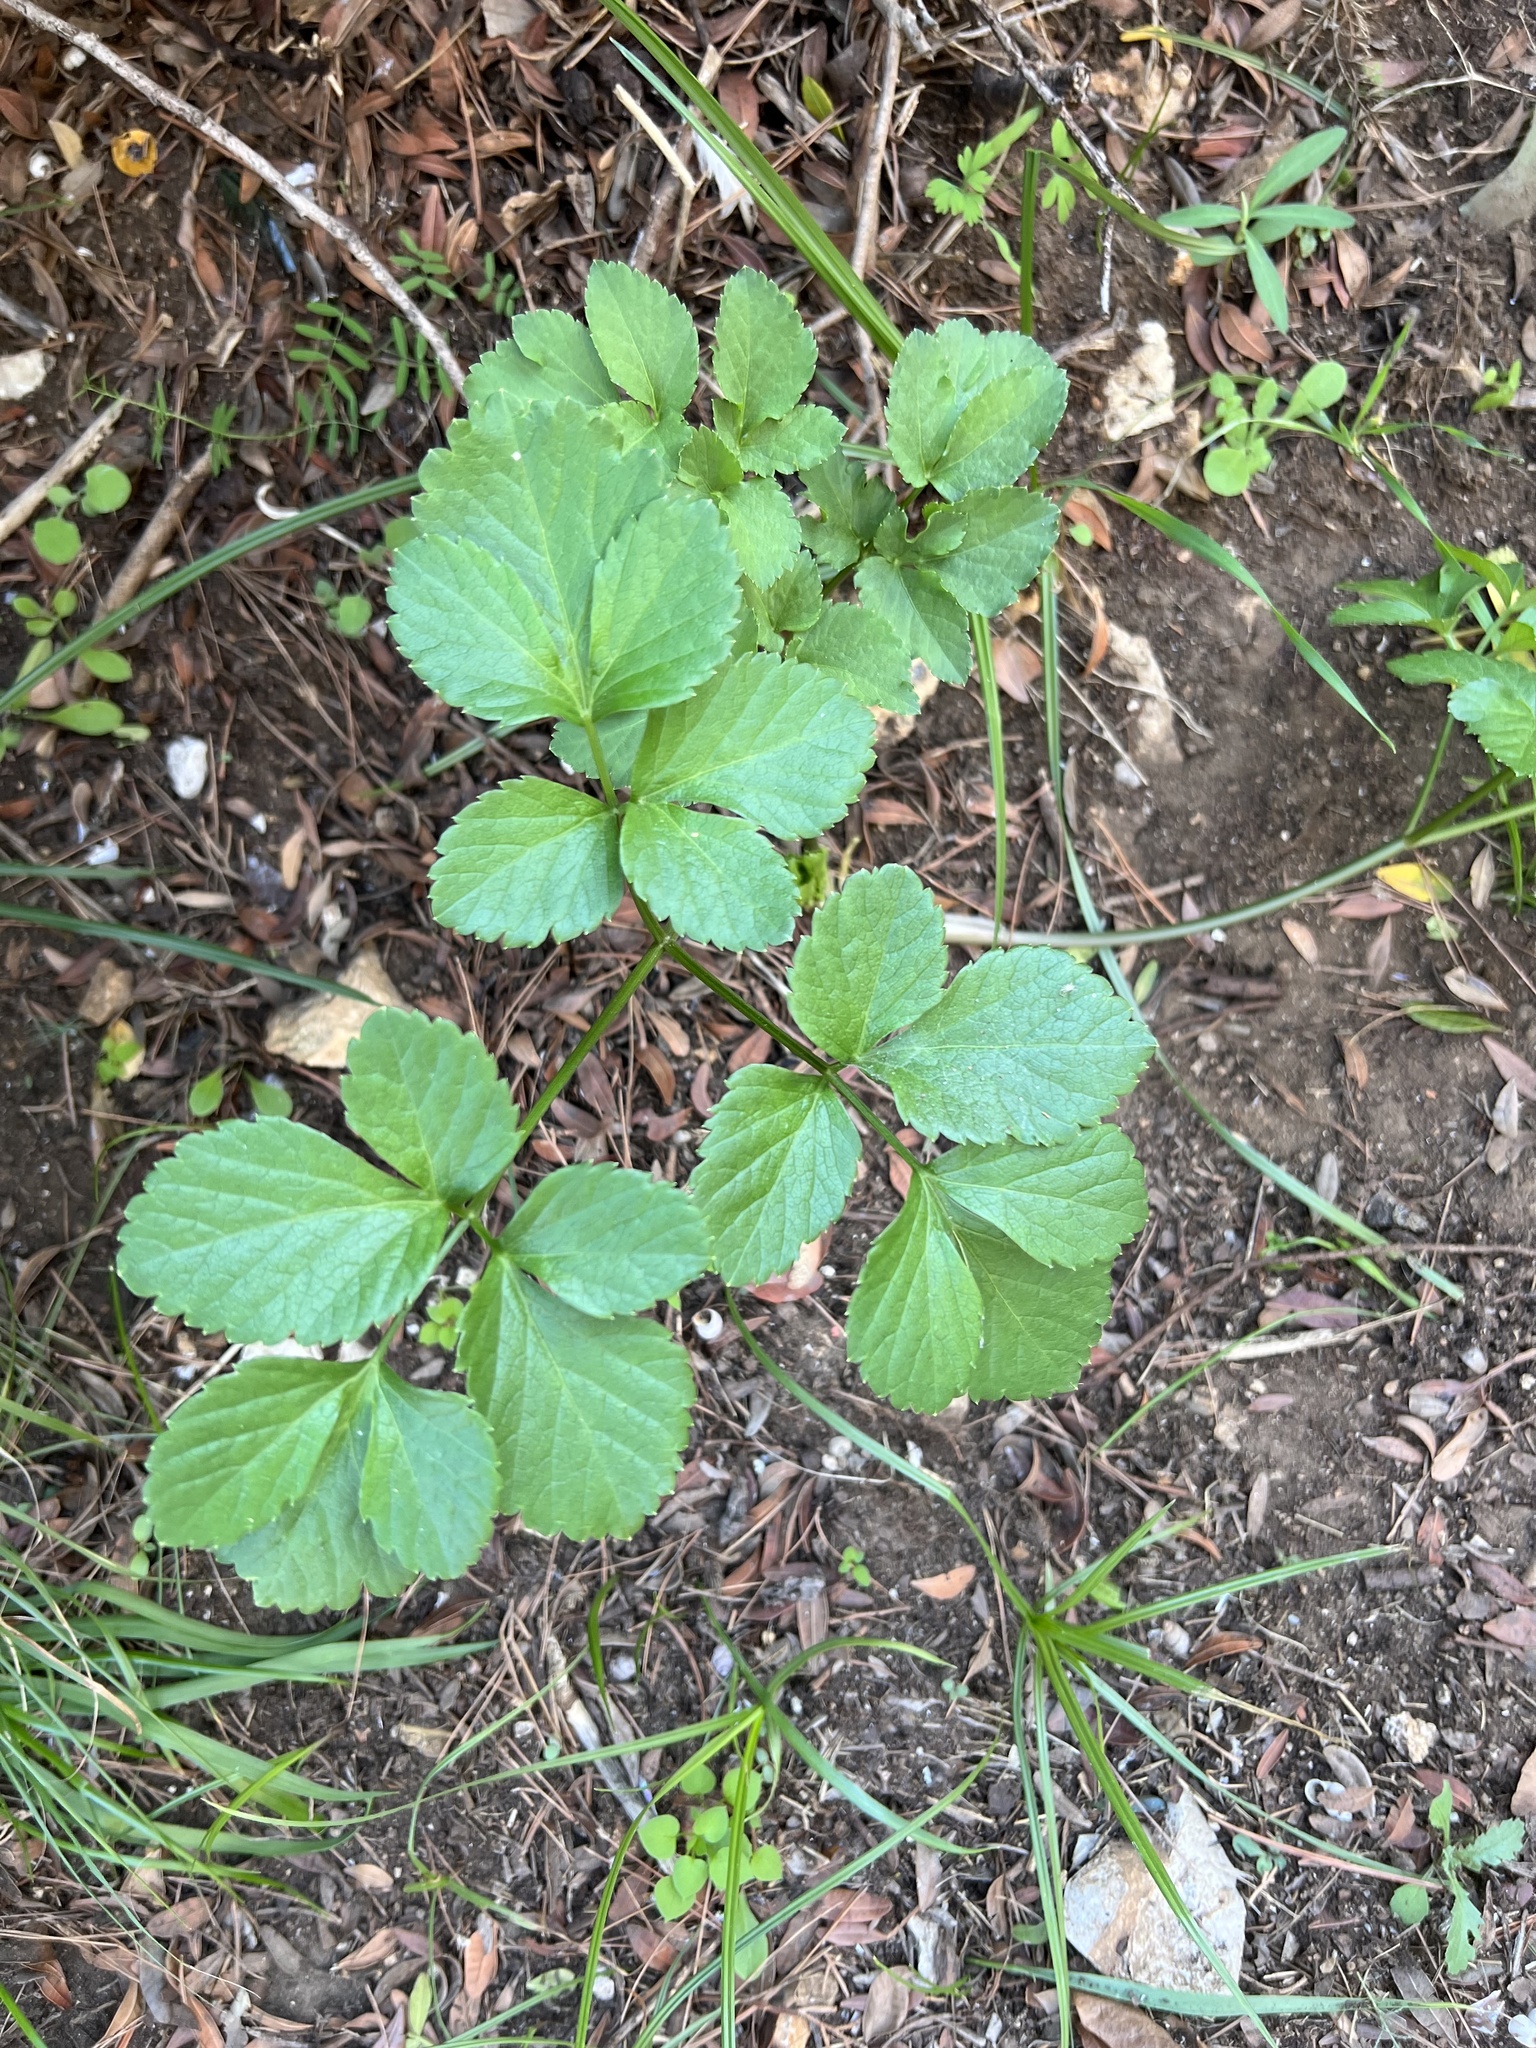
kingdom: Plantae
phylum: Tracheophyta
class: Magnoliopsida
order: Apiales
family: Apiaceae
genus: Smyrnium
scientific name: Smyrnium olusatrum
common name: Alexanders
